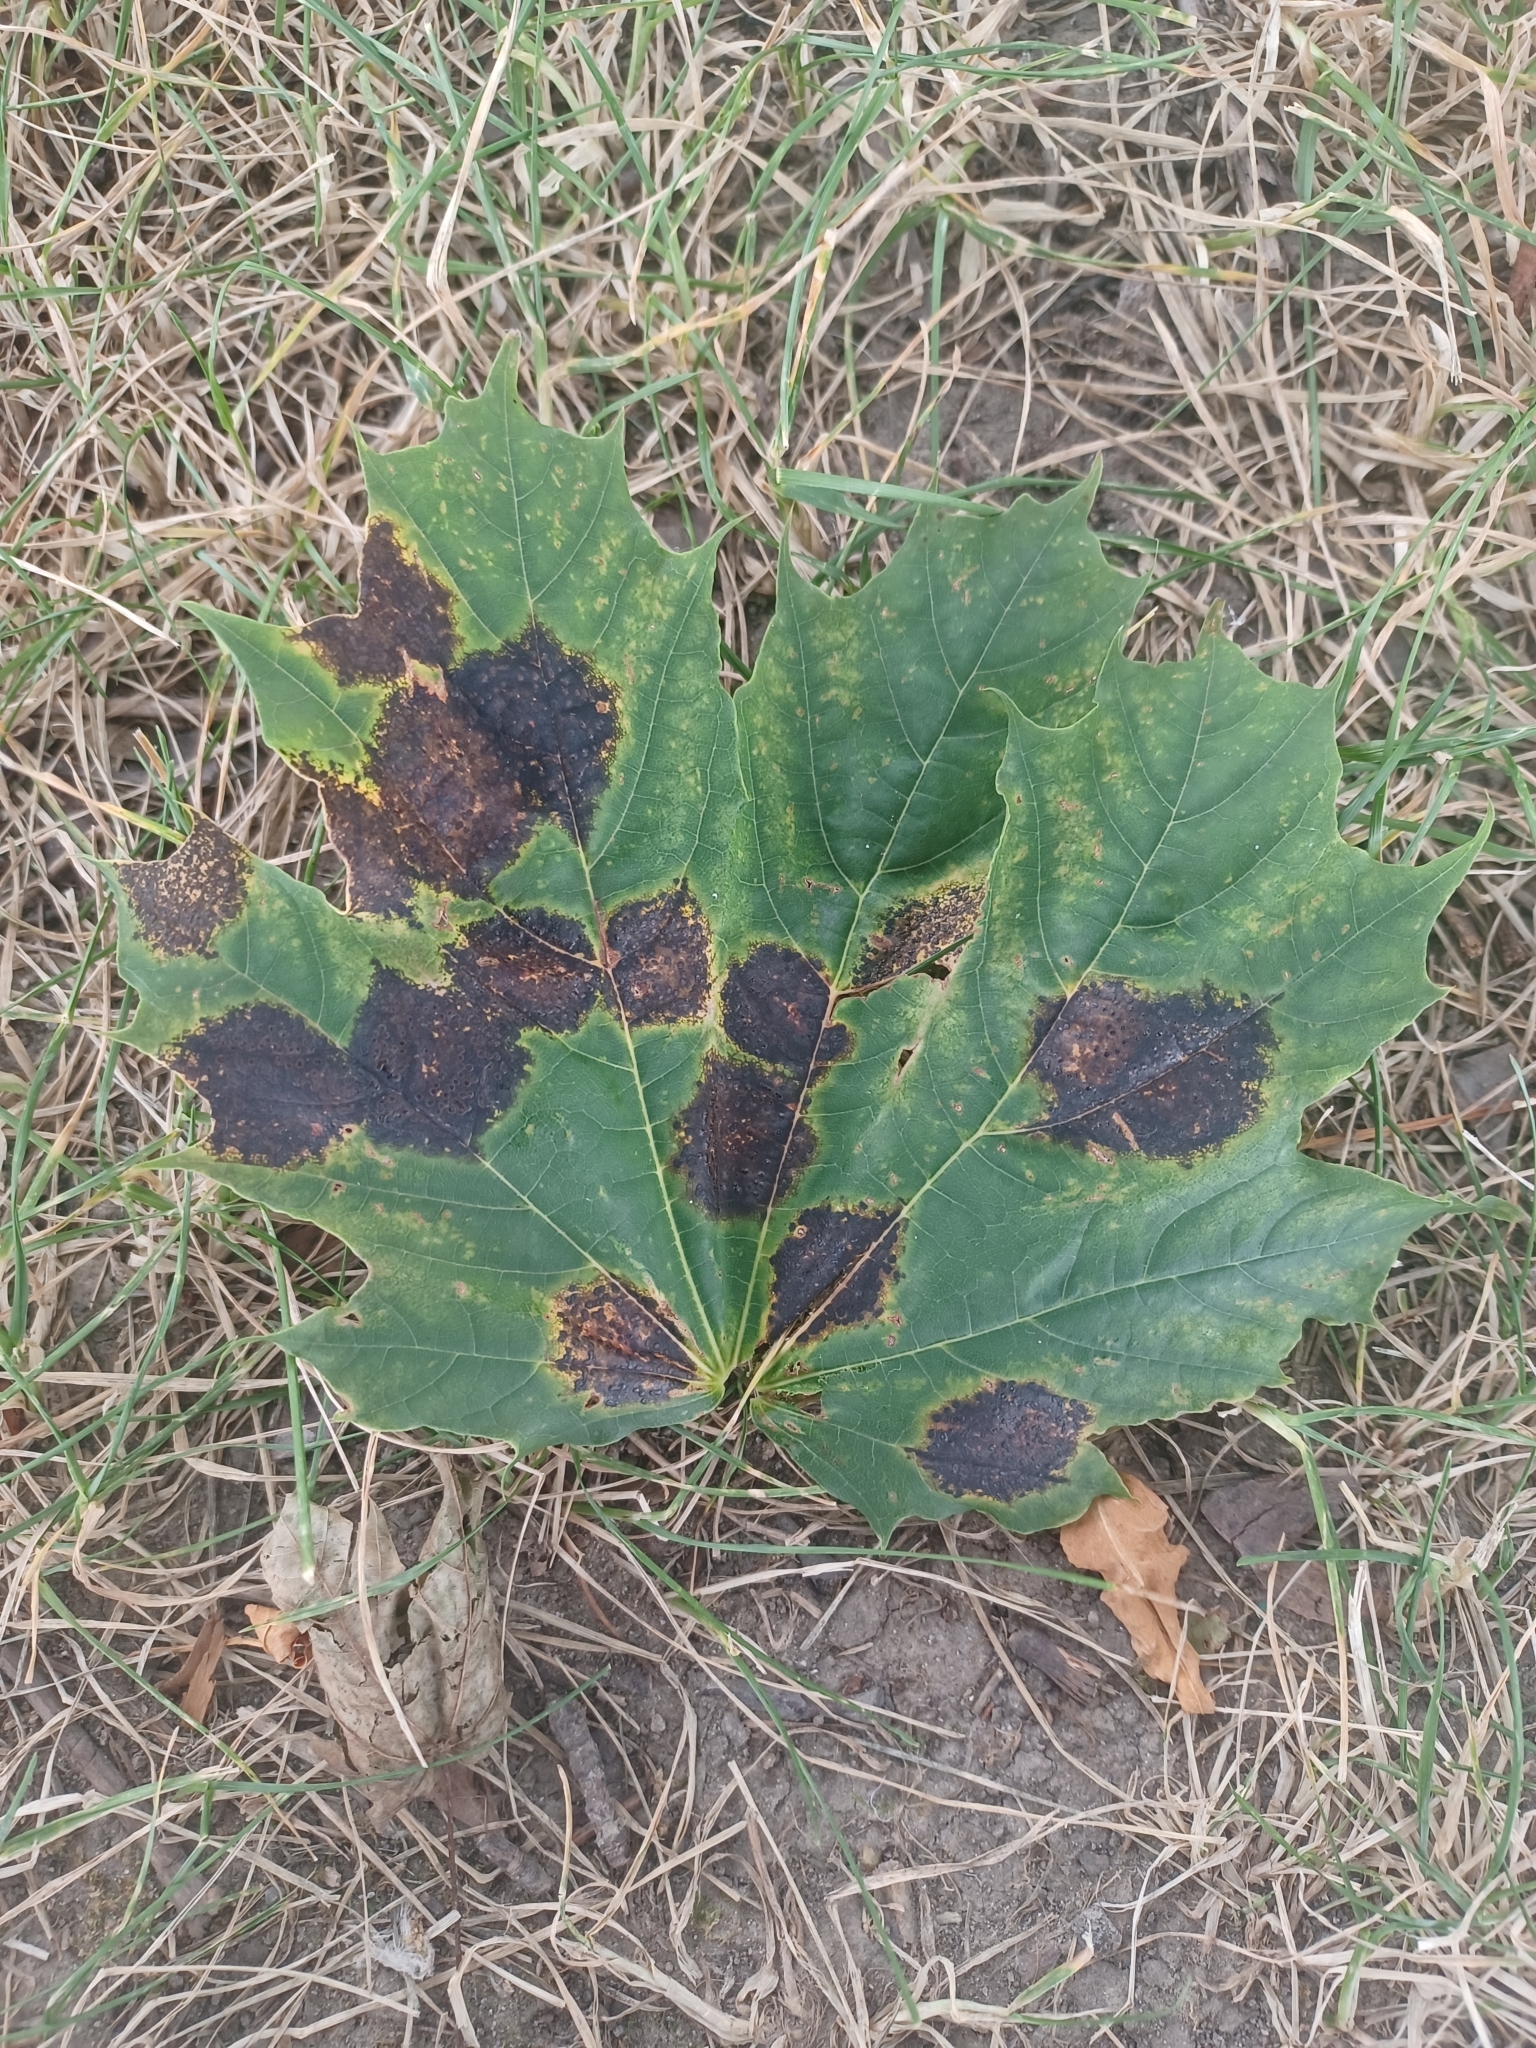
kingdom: Fungi
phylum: Ascomycota
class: Leotiomycetes
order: Rhytismatales
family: Rhytismataceae
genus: Rhytisma
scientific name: Rhytisma acerinum
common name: European tar spot
